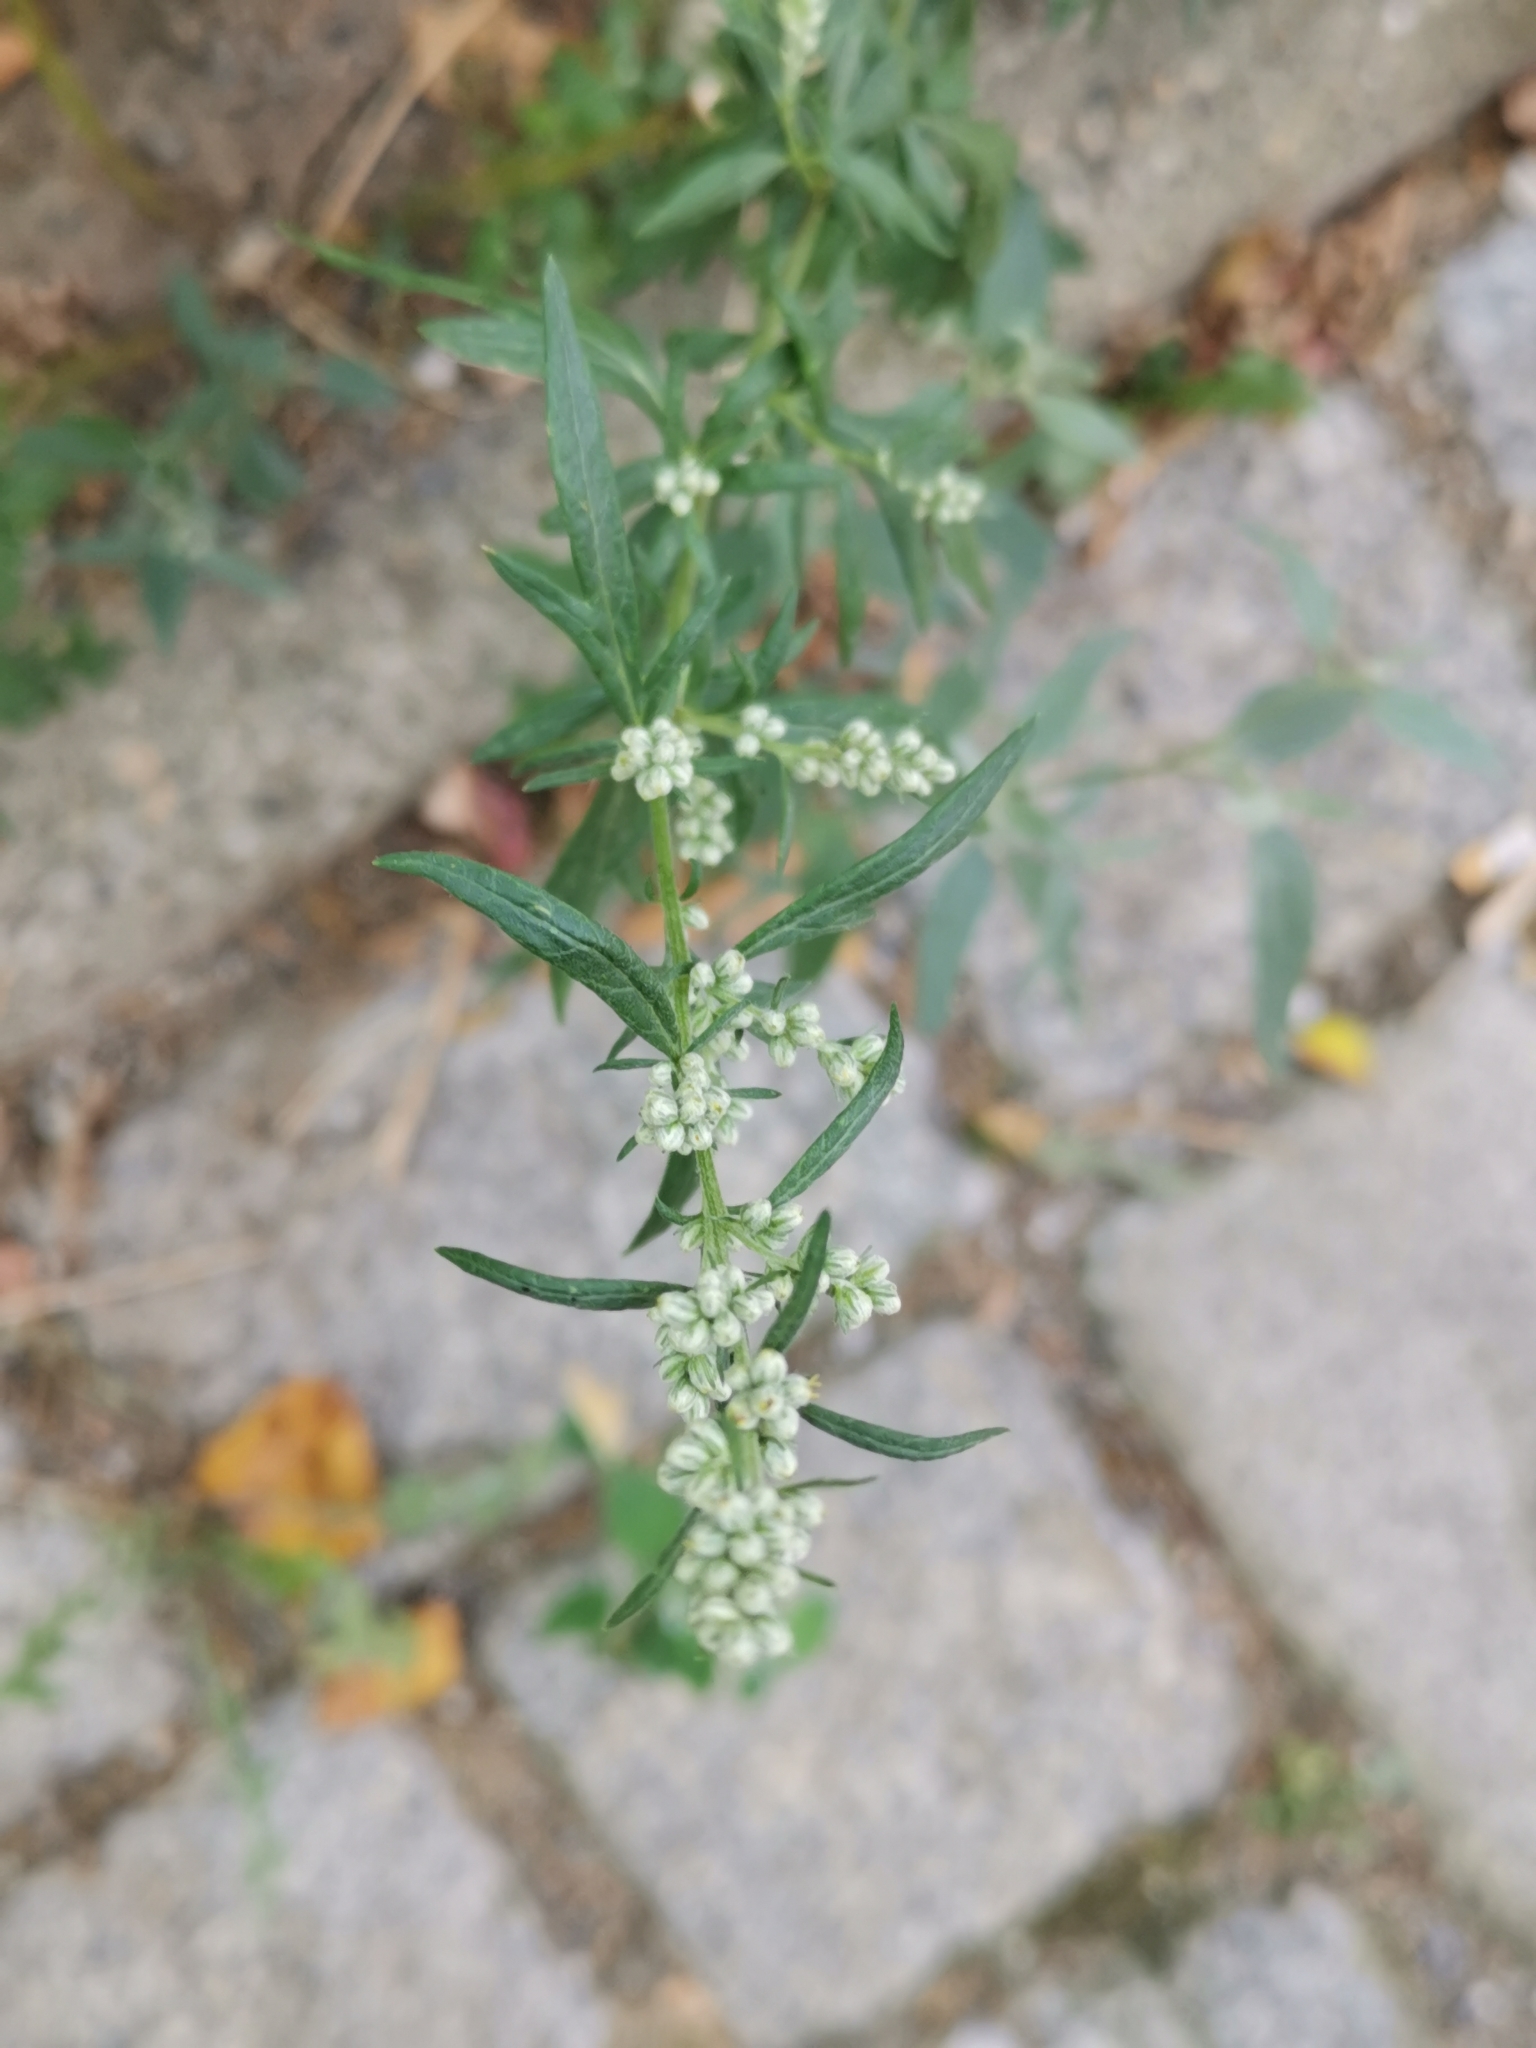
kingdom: Plantae
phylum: Tracheophyta
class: Magnoliopsida
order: Asterales
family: Asteraceae
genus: Artemisia
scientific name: Artemisia vulgaris
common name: Mugwort
